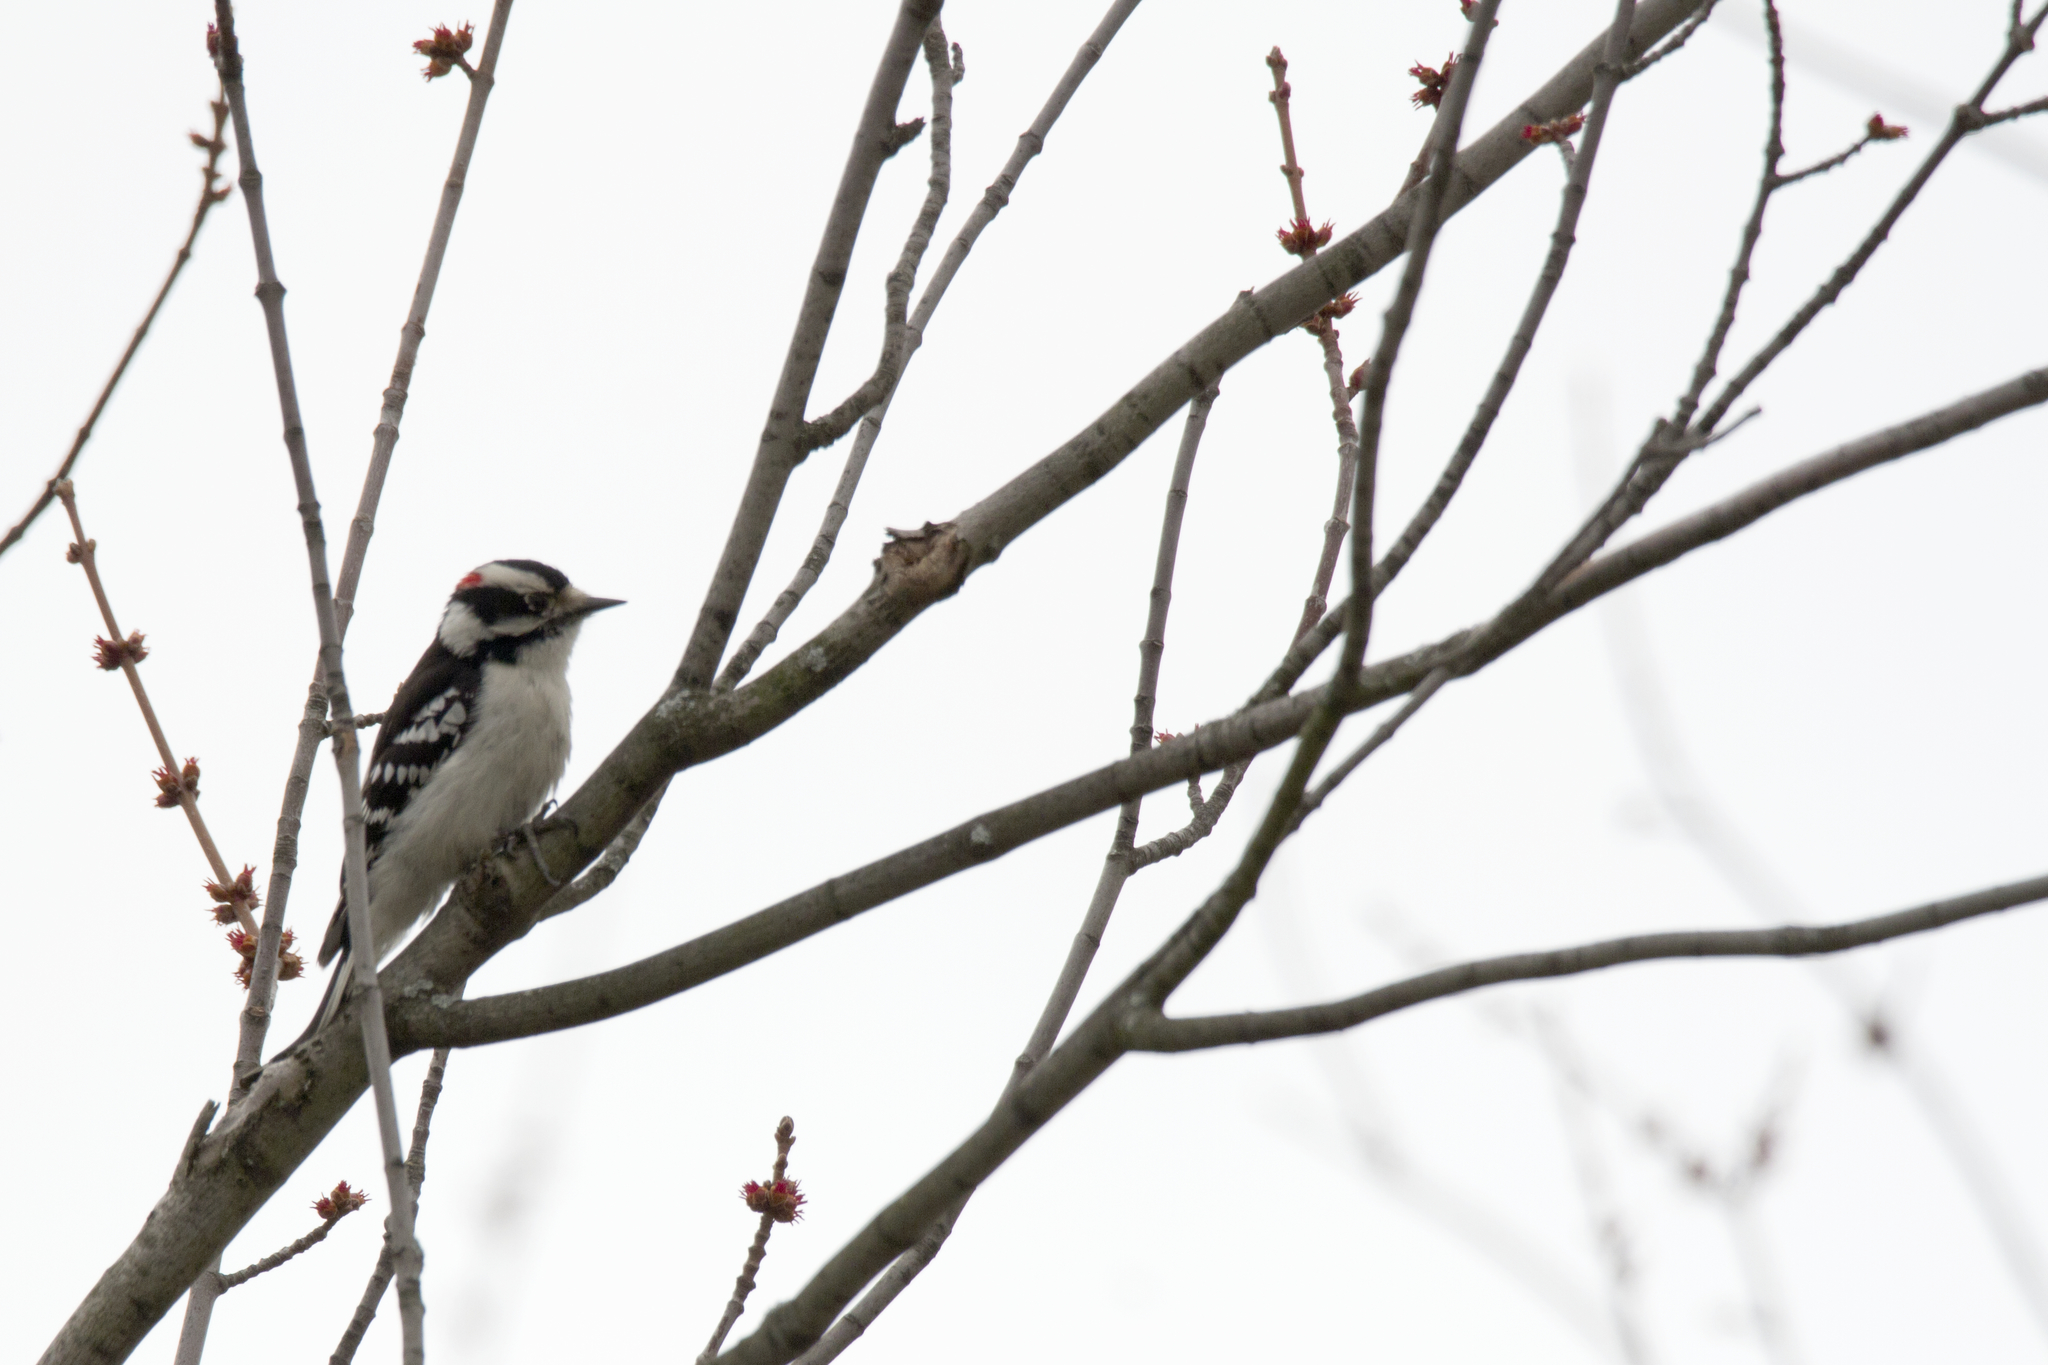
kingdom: Animalia
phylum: Chordata
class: Aves
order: Piciformes
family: Picidae
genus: Dryobates
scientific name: Dryobates pubescens
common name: Downy woodpecker
